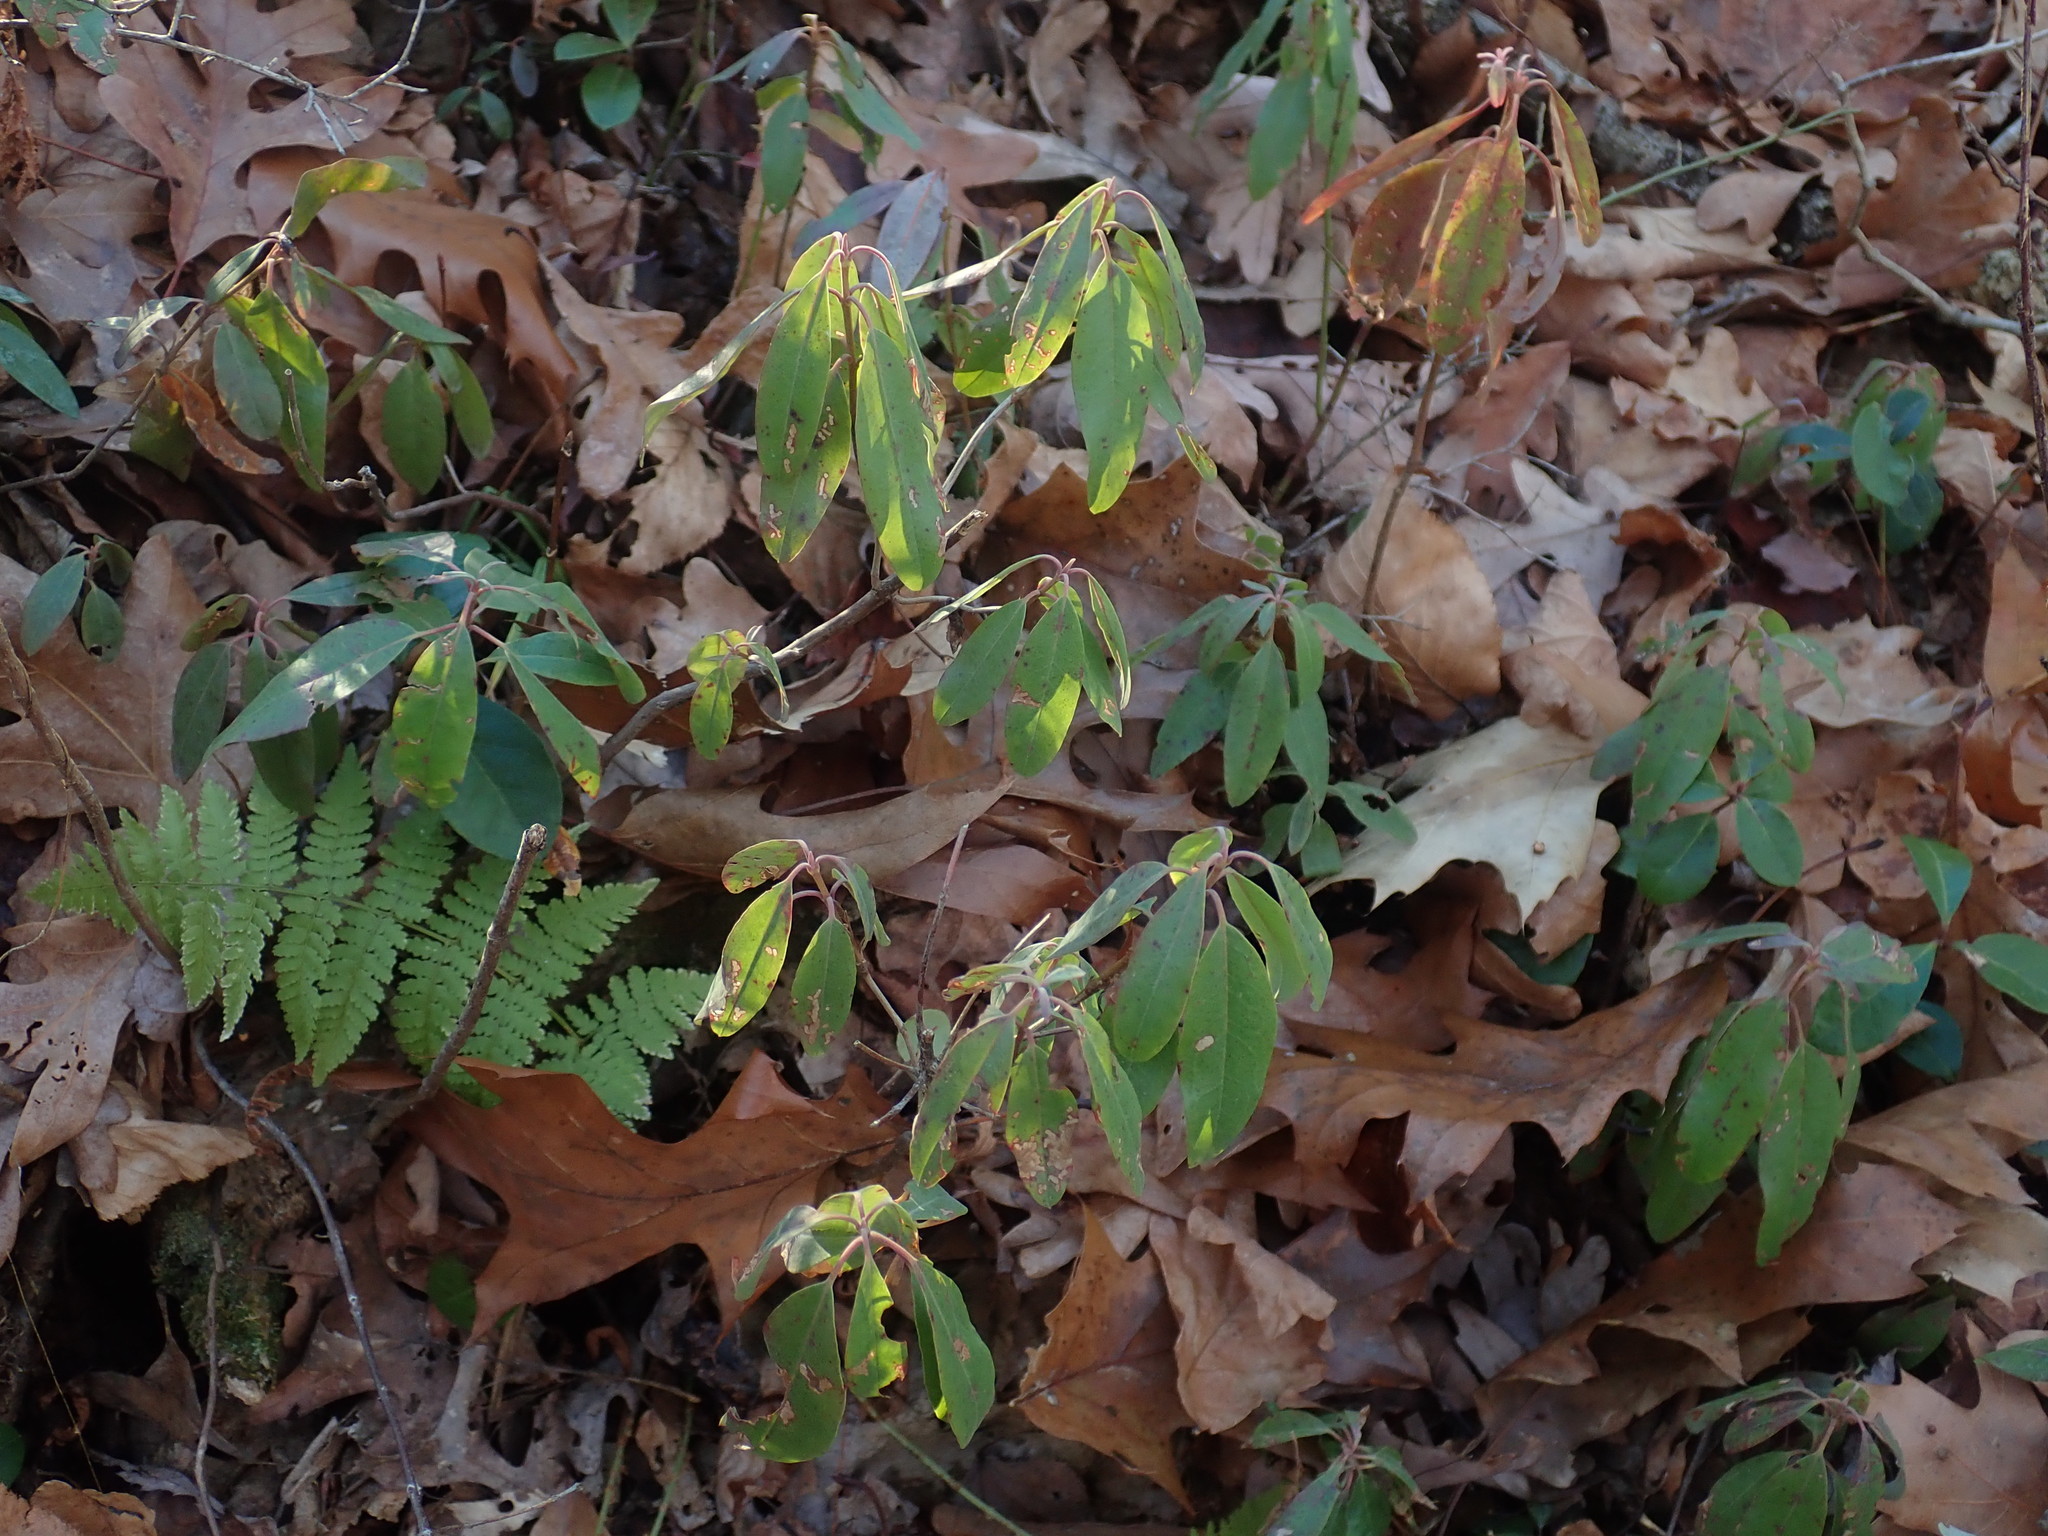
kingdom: Plantae
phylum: Tracheophyta
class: Magnoliopsida
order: Ericales
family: Ericaceae
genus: Kalmia
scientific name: Kalmia angustifolia
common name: Sheep-laurel
